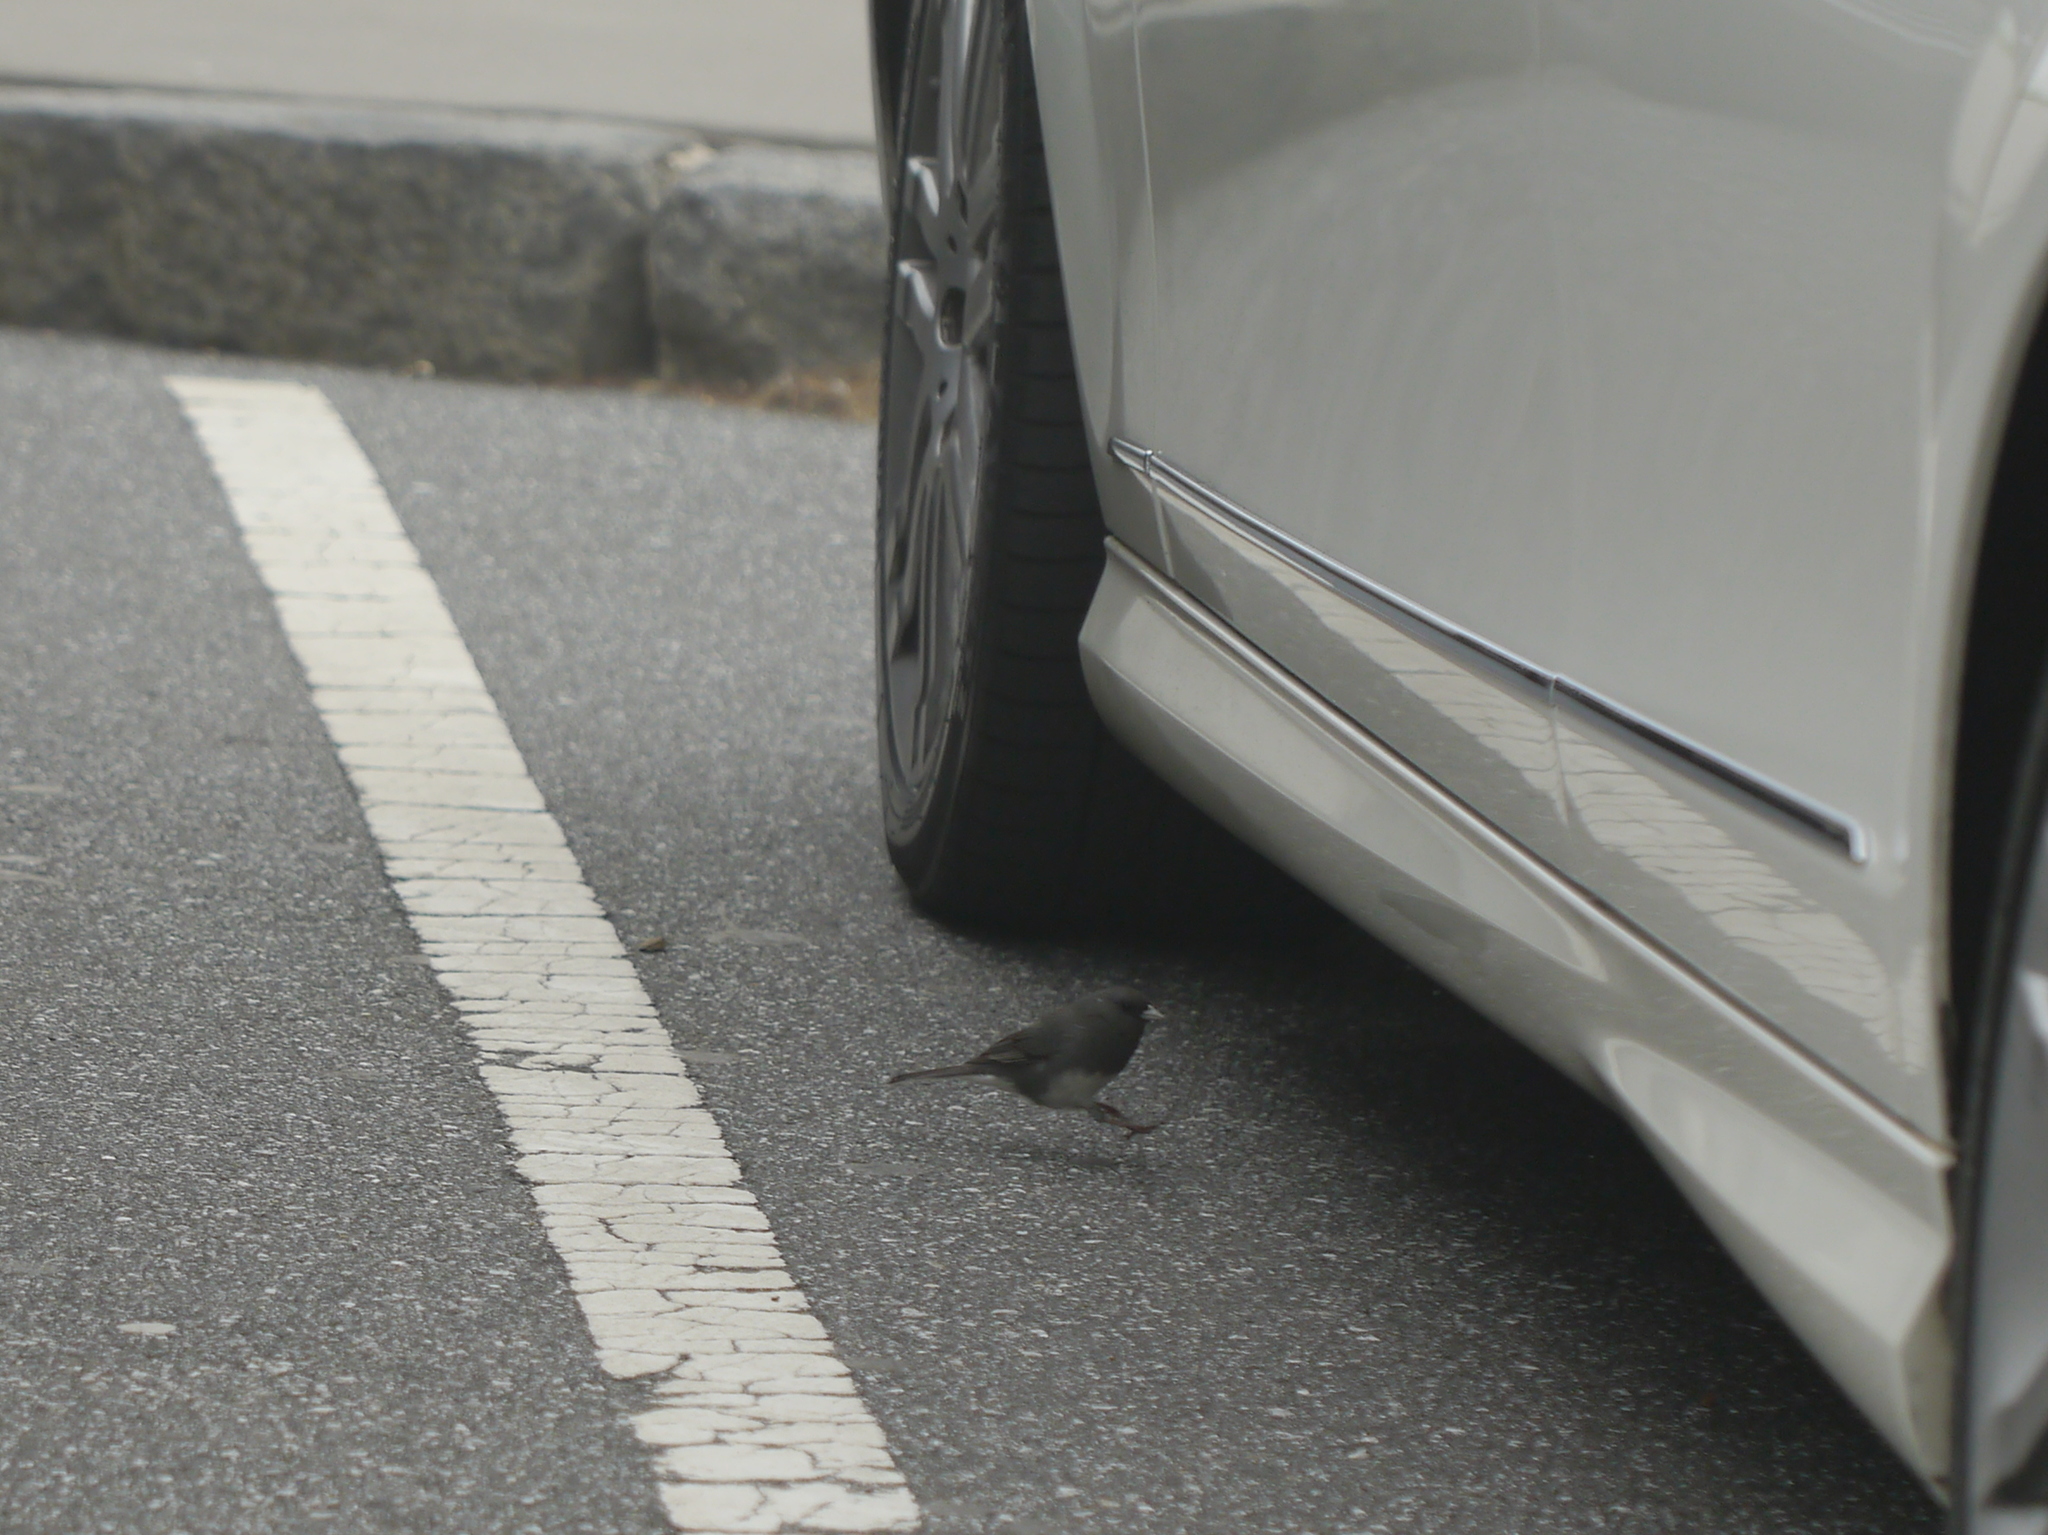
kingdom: Animalia
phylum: Chordata
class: Aves
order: Passeriformes
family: Passerellidae
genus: Junco
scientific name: Junco hyemalis
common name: Dark-eyed junco
